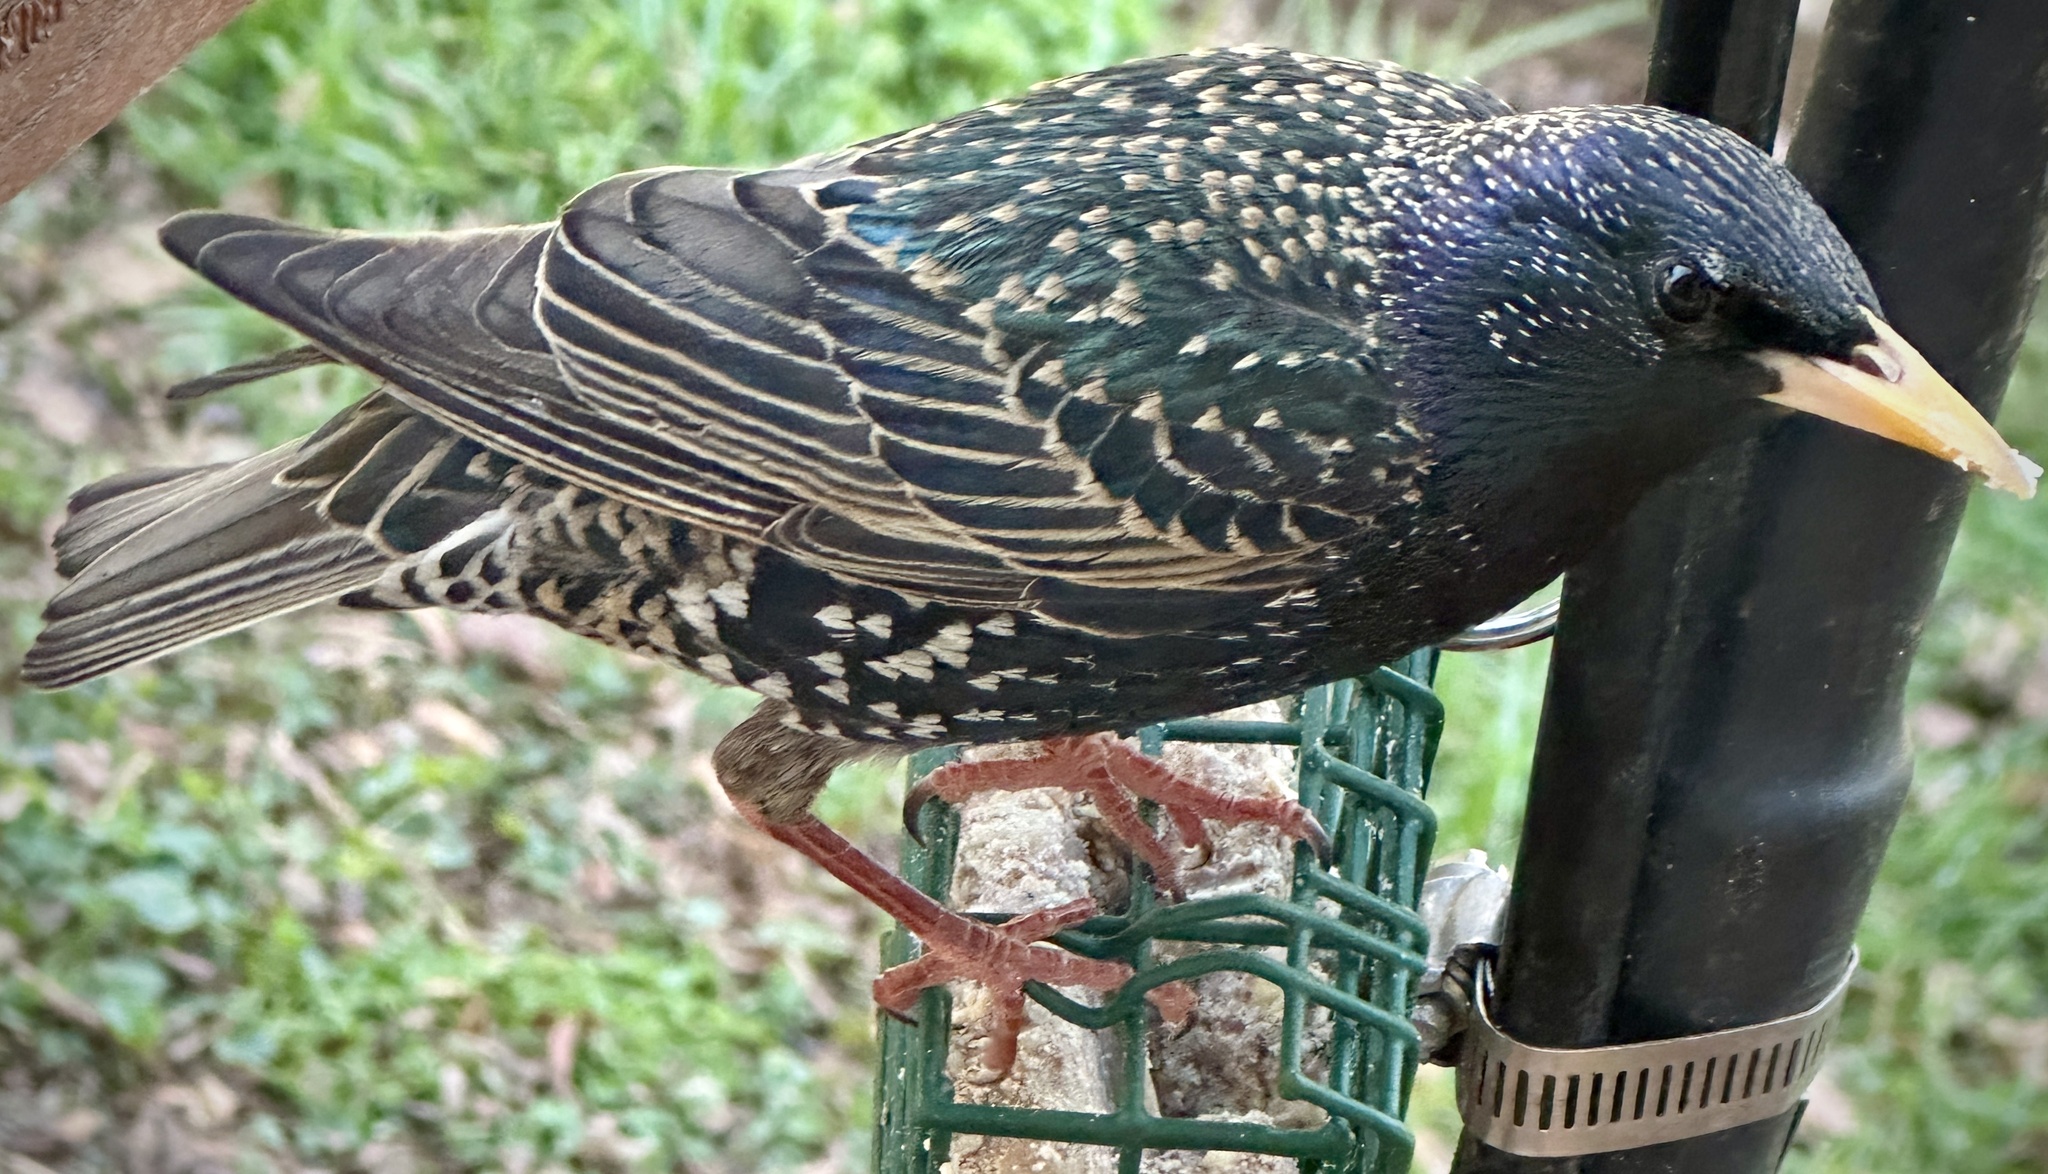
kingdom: Animalia
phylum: Chordata
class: Aves
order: Passeriformes
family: Sturnidae
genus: Sturnus
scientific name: Sturnus vulgaris
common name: Common starling
